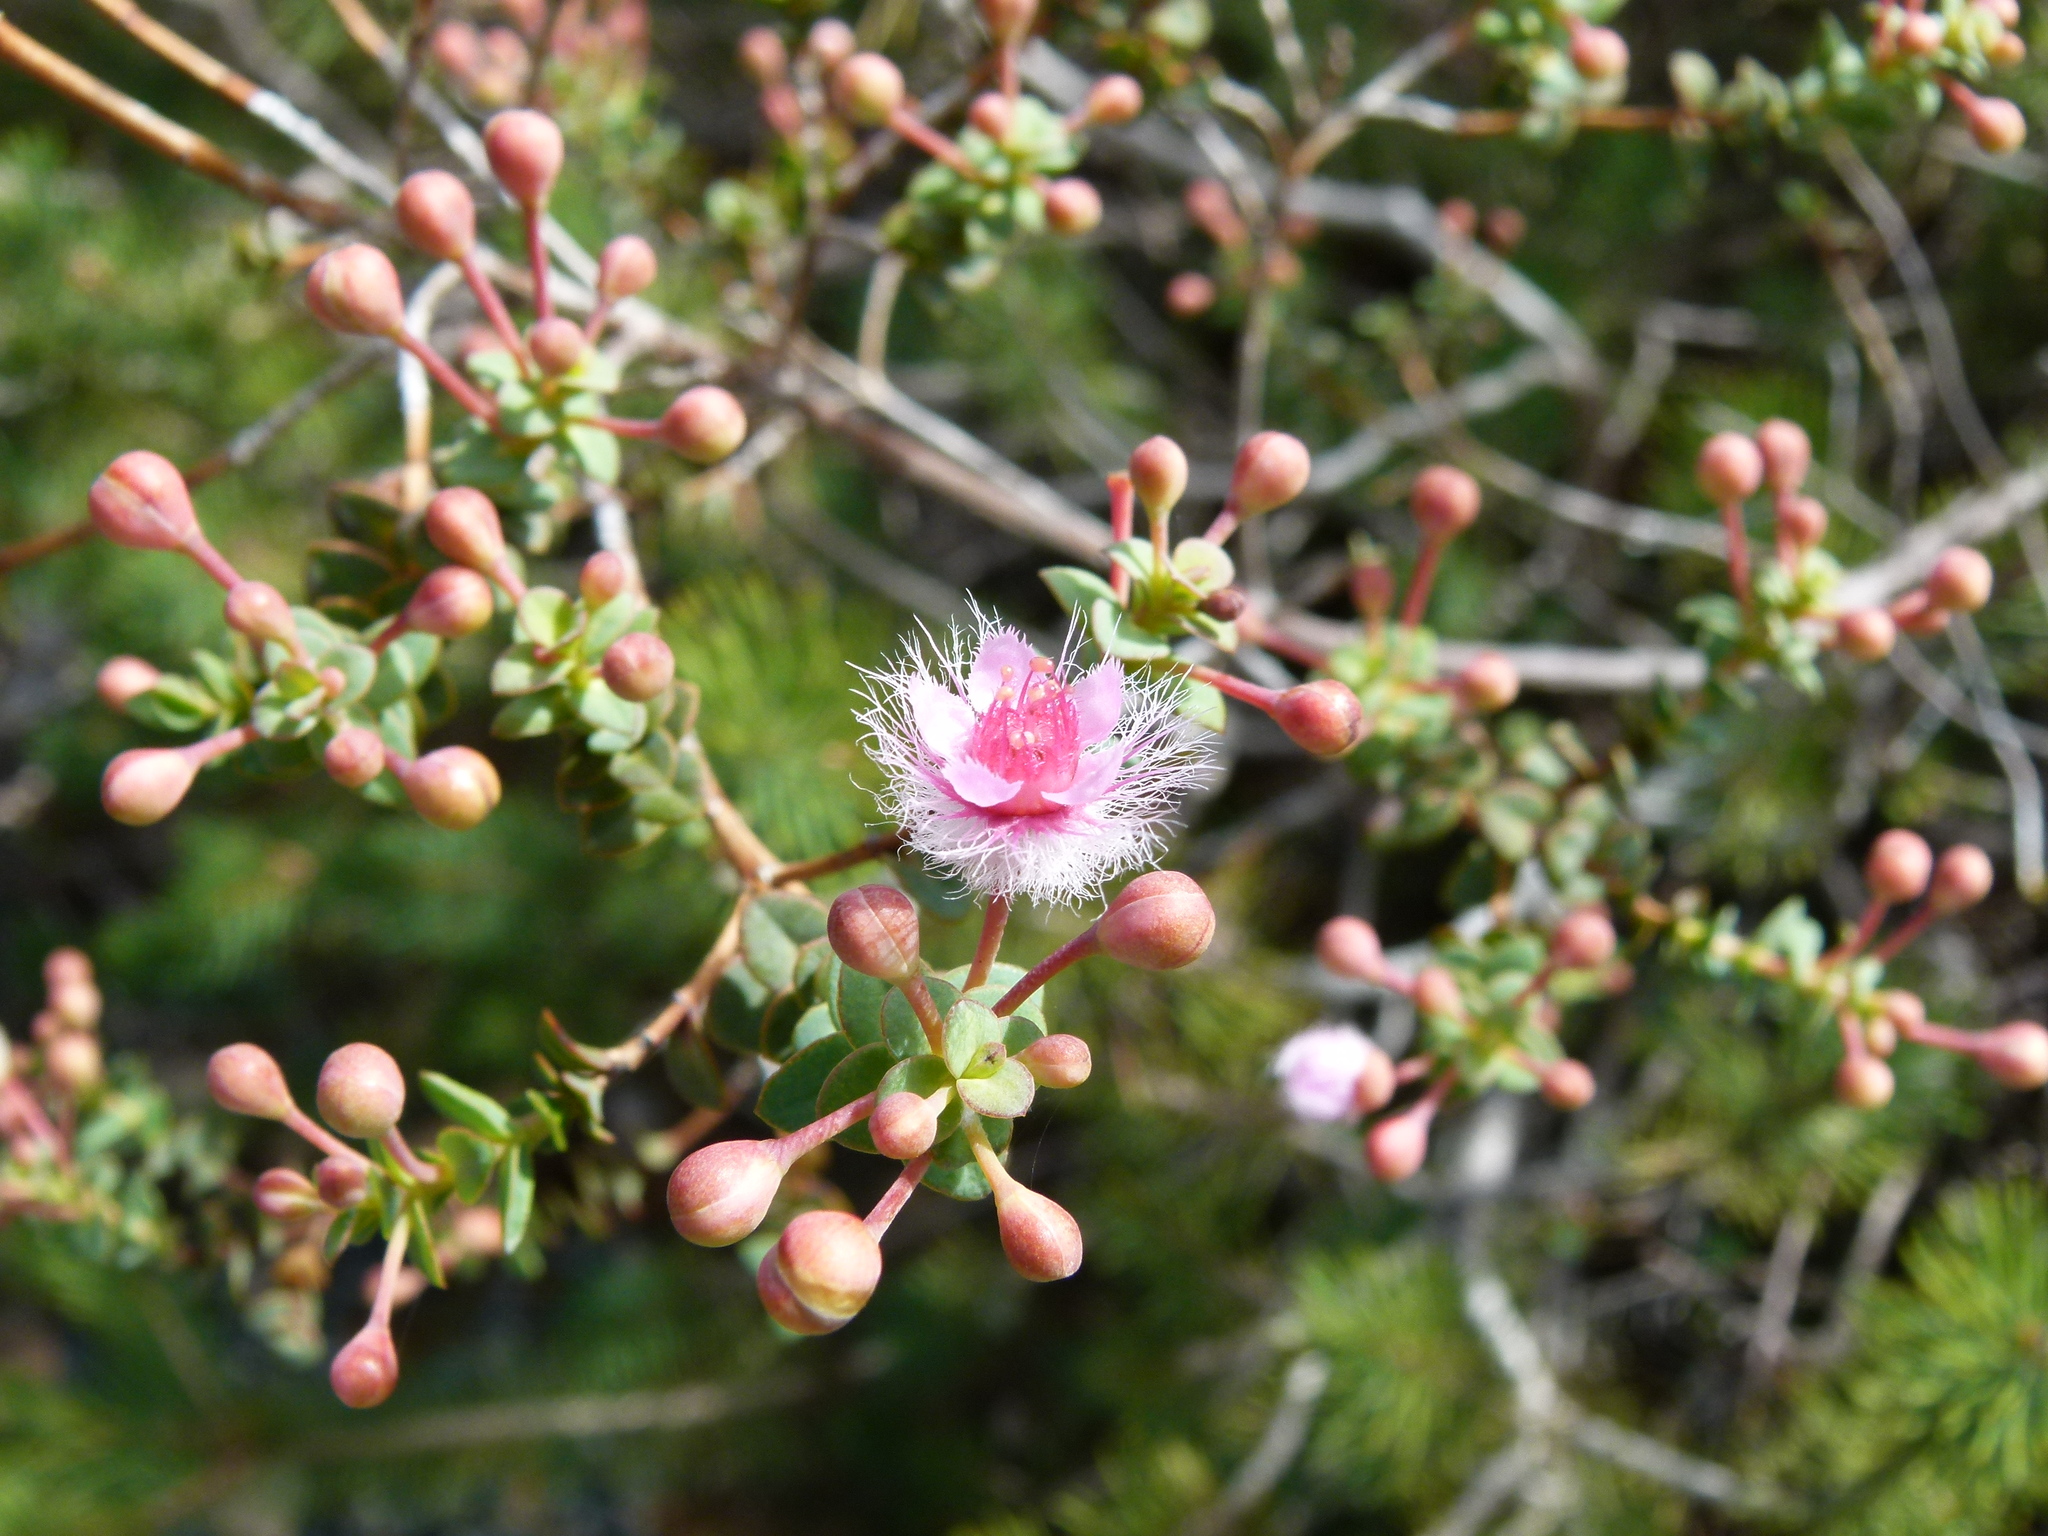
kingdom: Plantae
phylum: Tracheophyta
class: Magnoliopsida
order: Myrtales
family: Myrtaceae
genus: Verticordia
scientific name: Verticordia insignis
